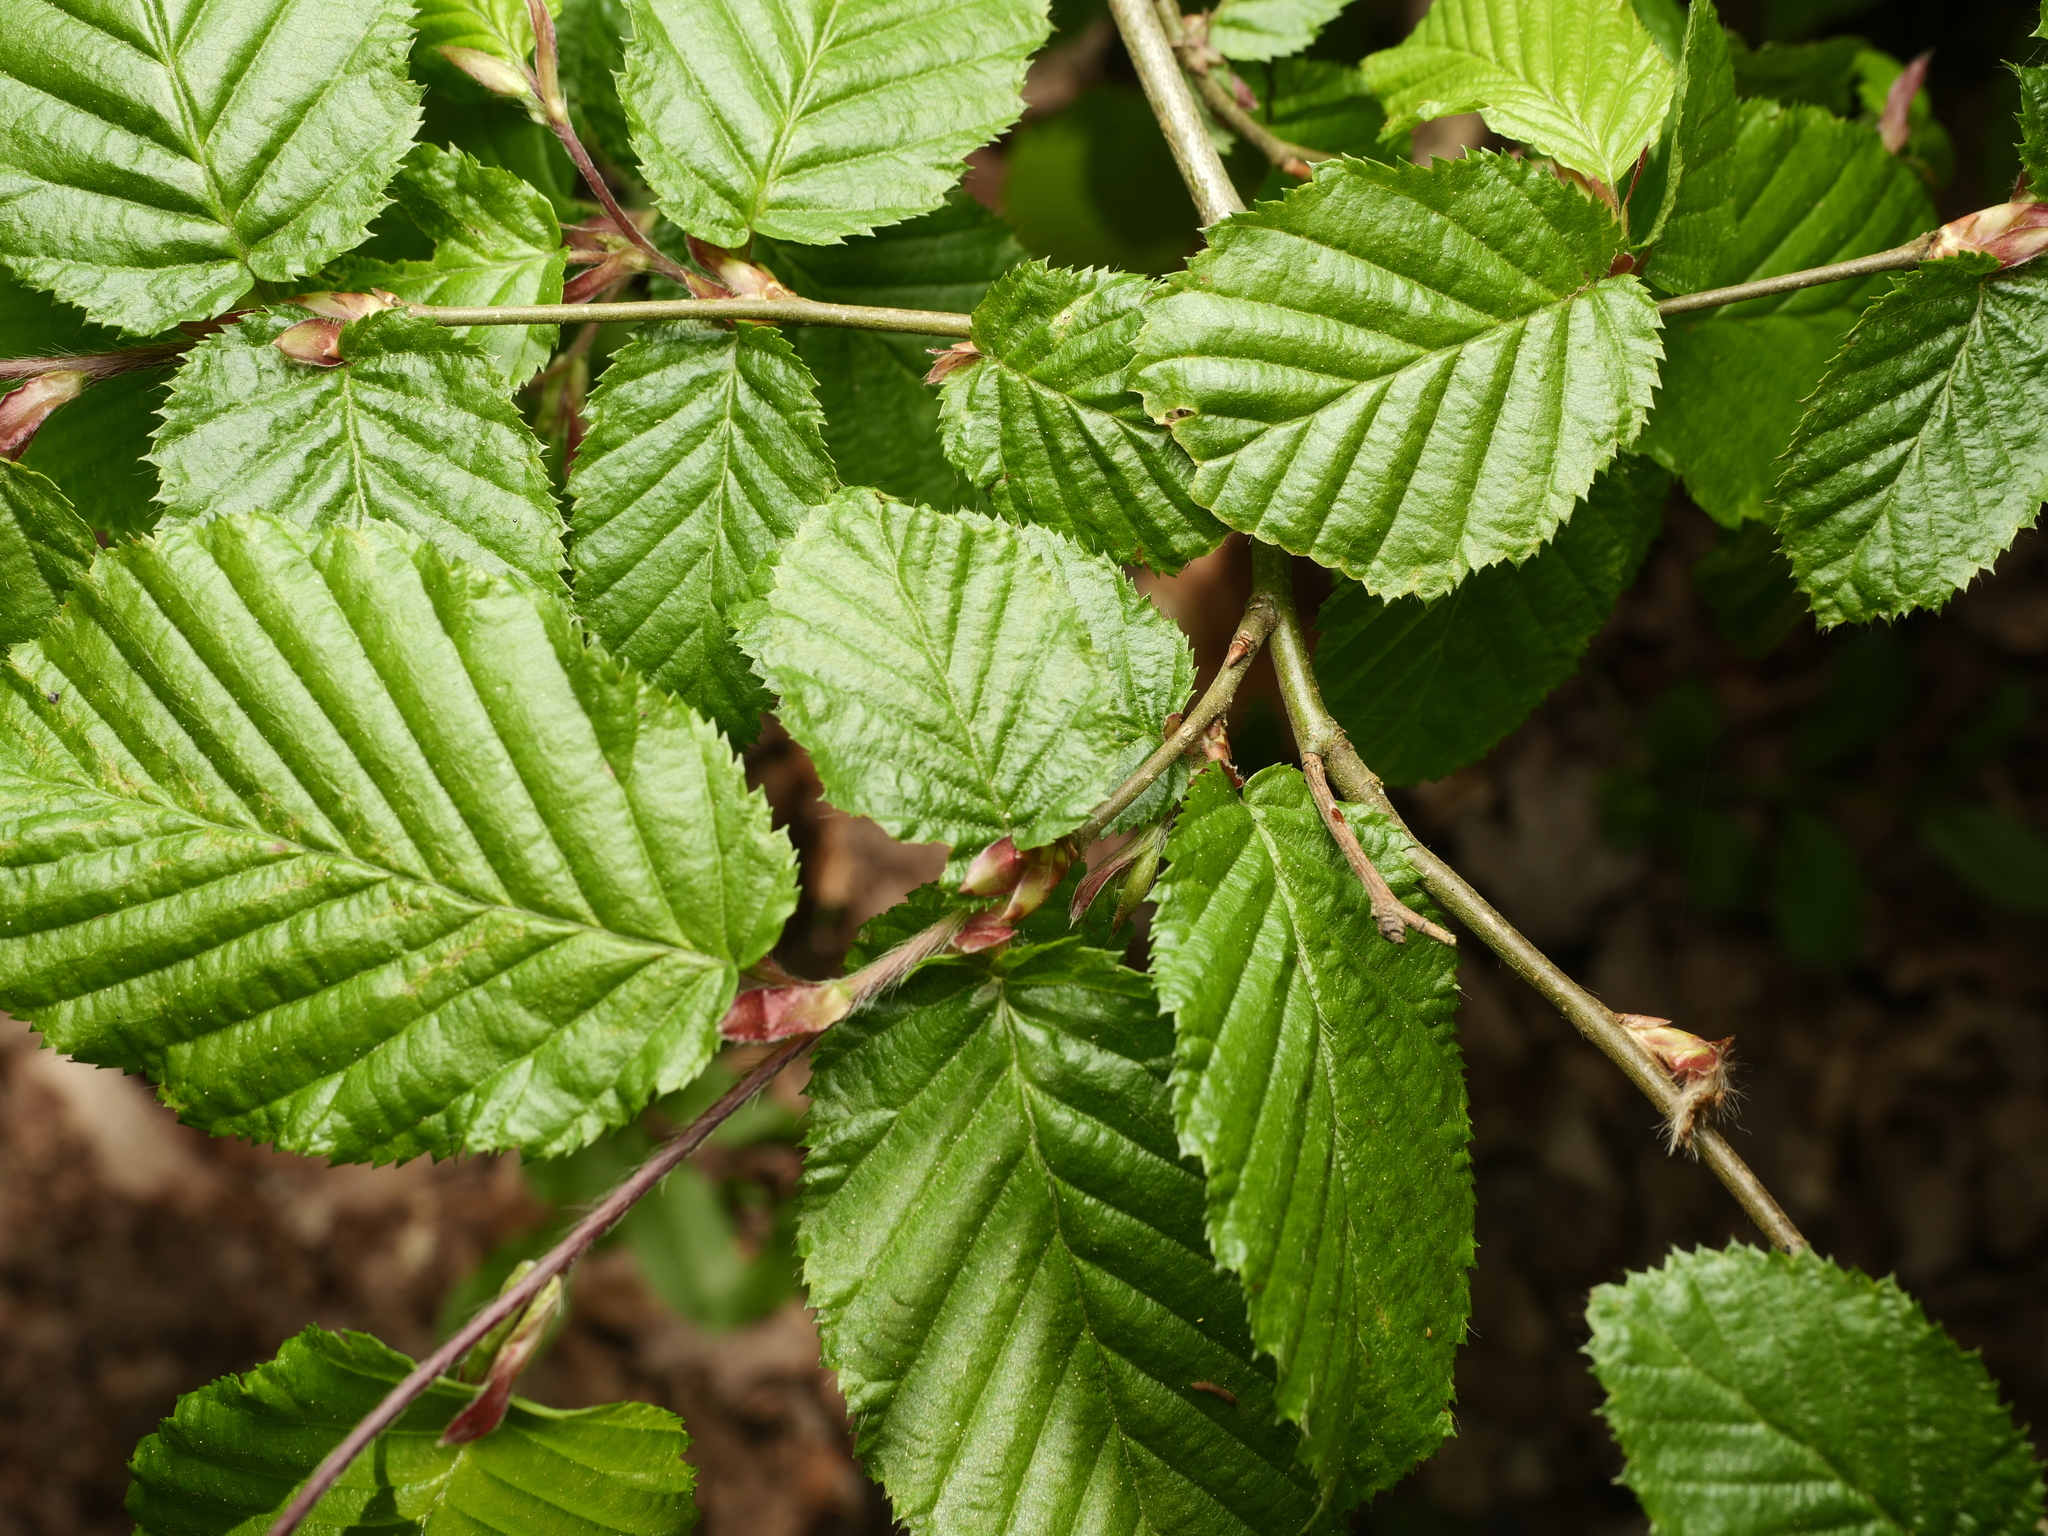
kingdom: Plantae
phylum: Tracheophyta
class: Magnoliopsida
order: Fagales
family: Betulaceae
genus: Carpinus
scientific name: Carpinus betulus
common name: Hornbeam
